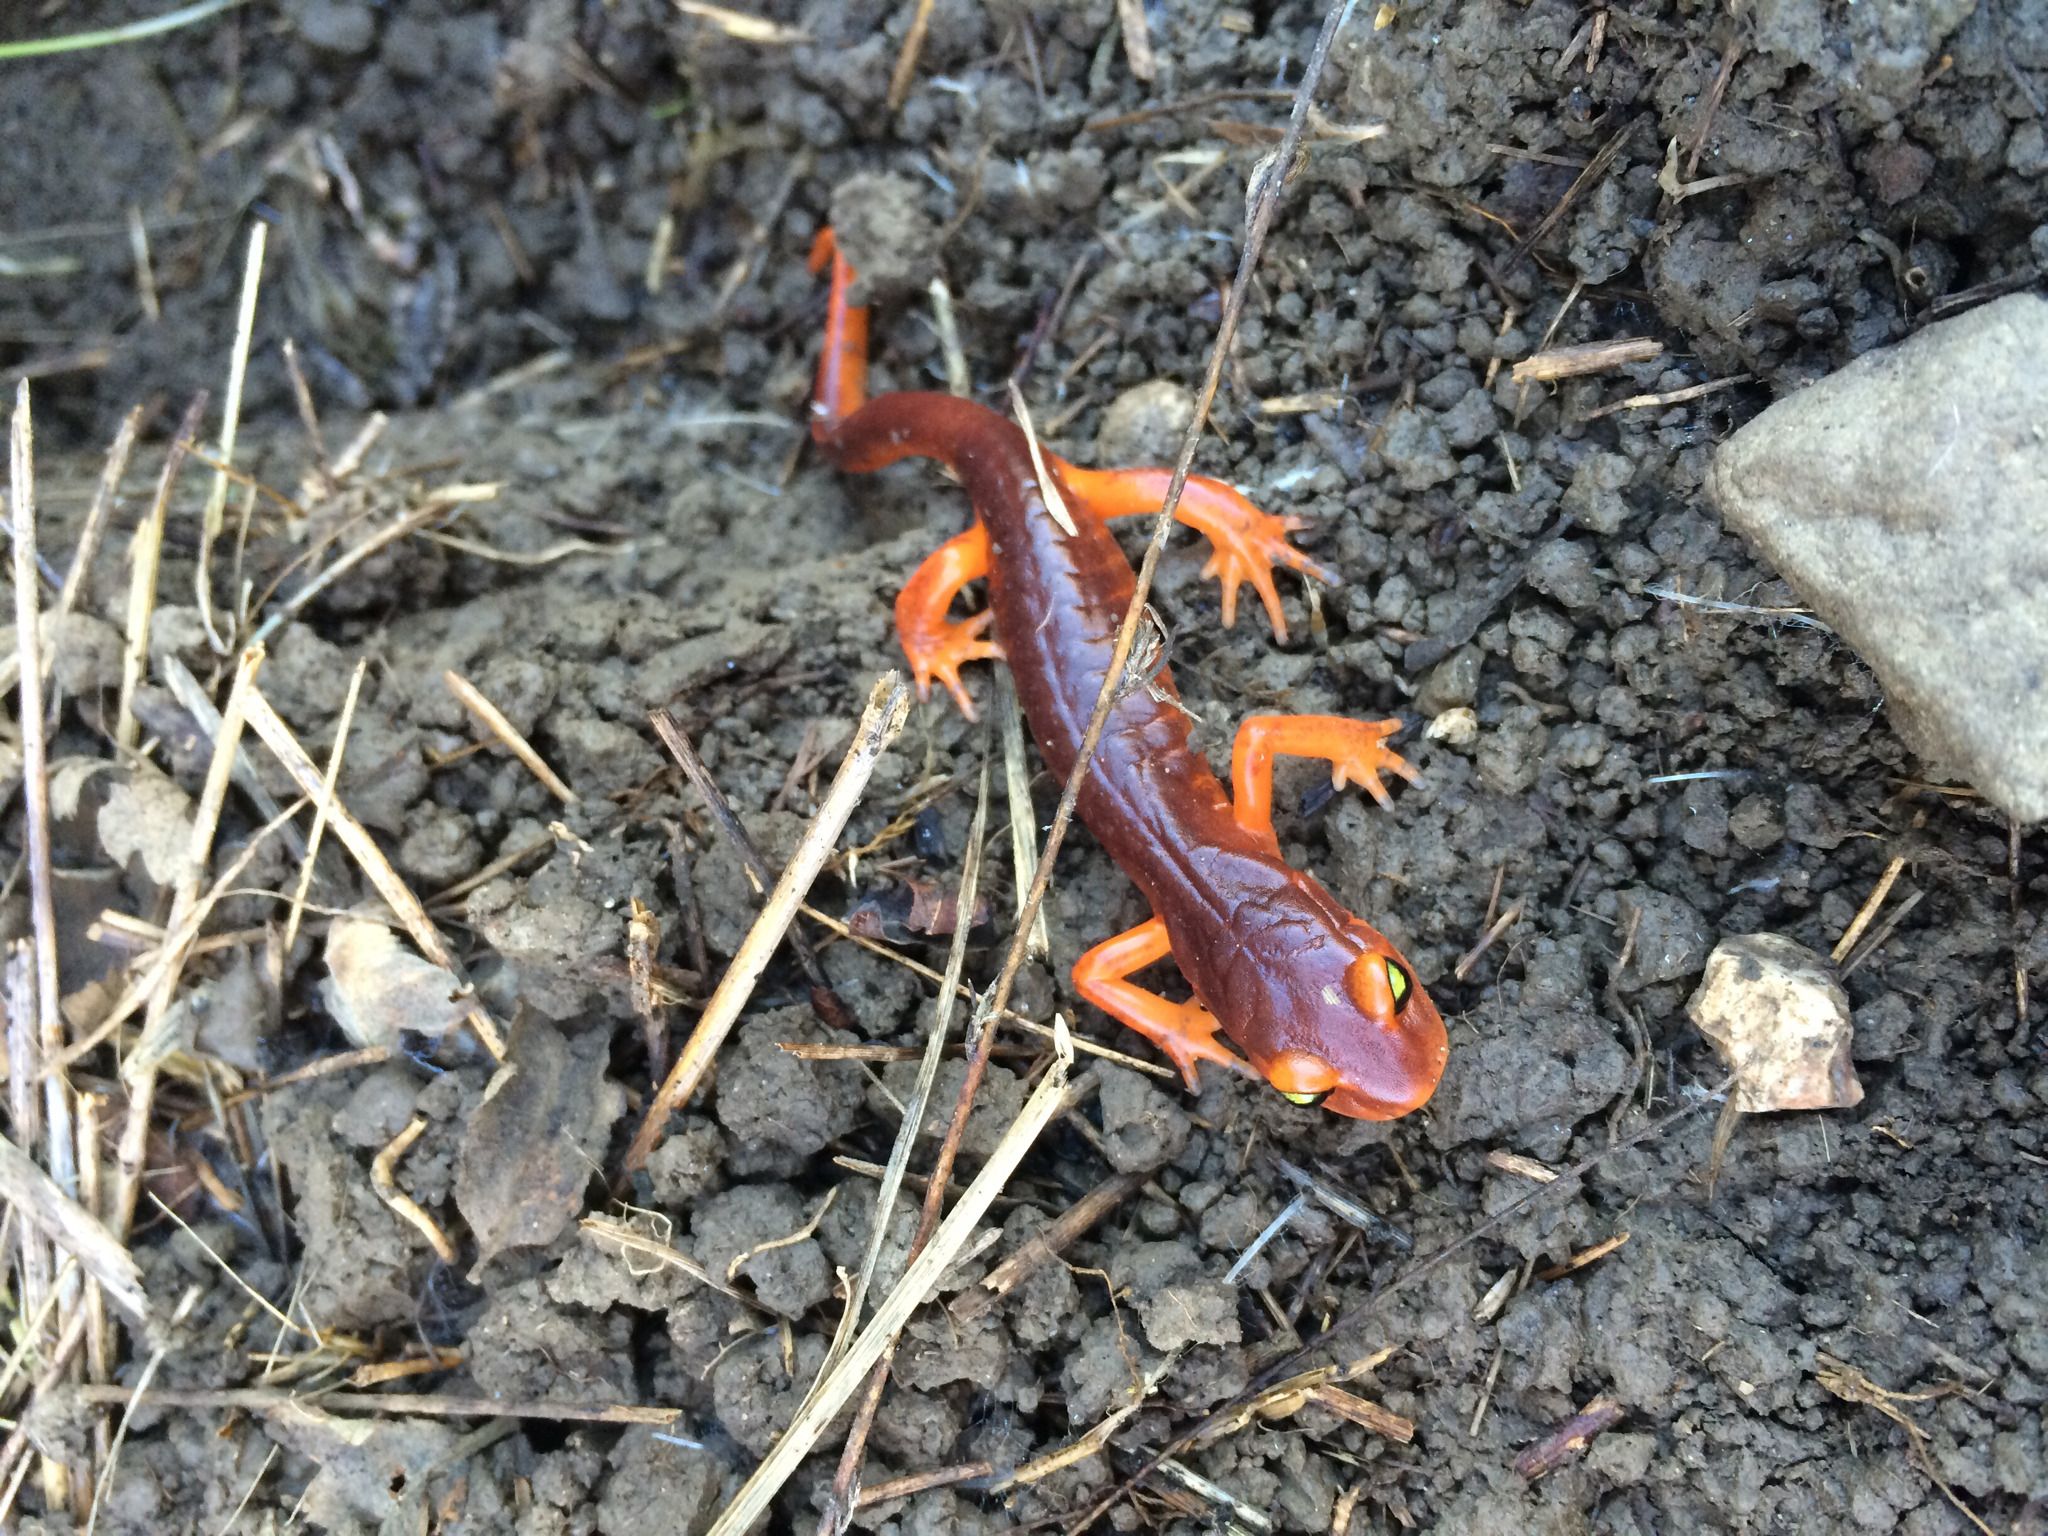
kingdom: Animalia
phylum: Chordata
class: Amphibia
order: Caudata
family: Plethodontidae
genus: Ensatina
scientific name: Ensatina eschscholtzii
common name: Ensatina
